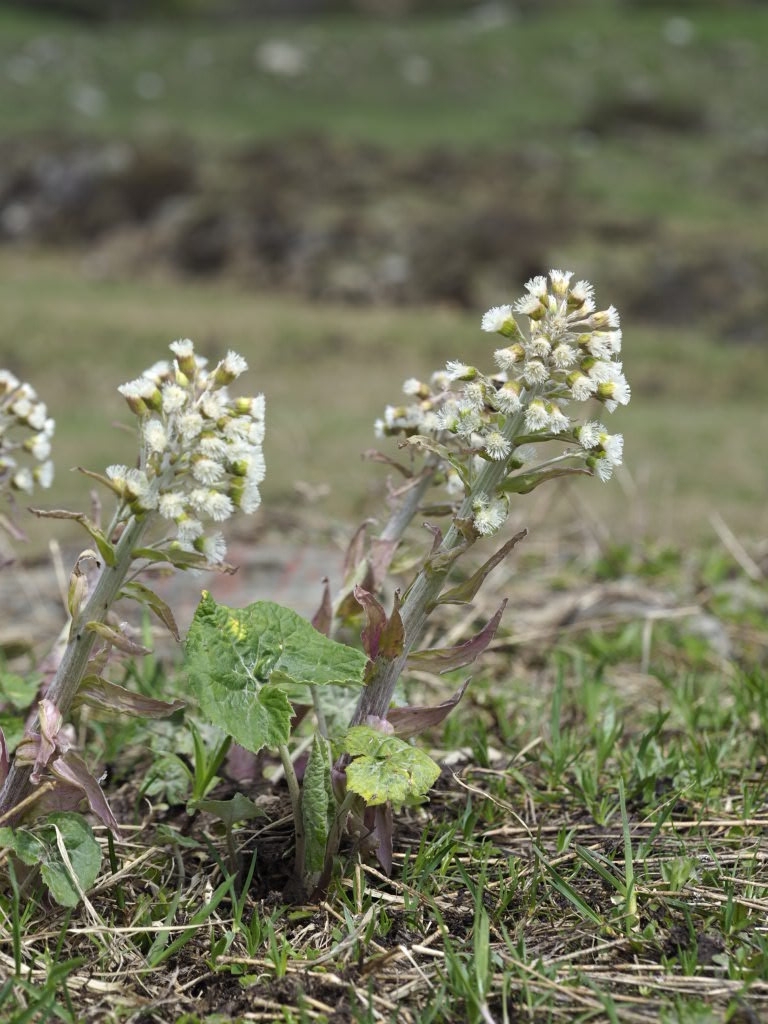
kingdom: Plantae
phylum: Tracheophyta
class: Magnoliopsida
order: Asterales
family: Asteraceae
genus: Petasites
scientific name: Petasites albus
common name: White butterbur
